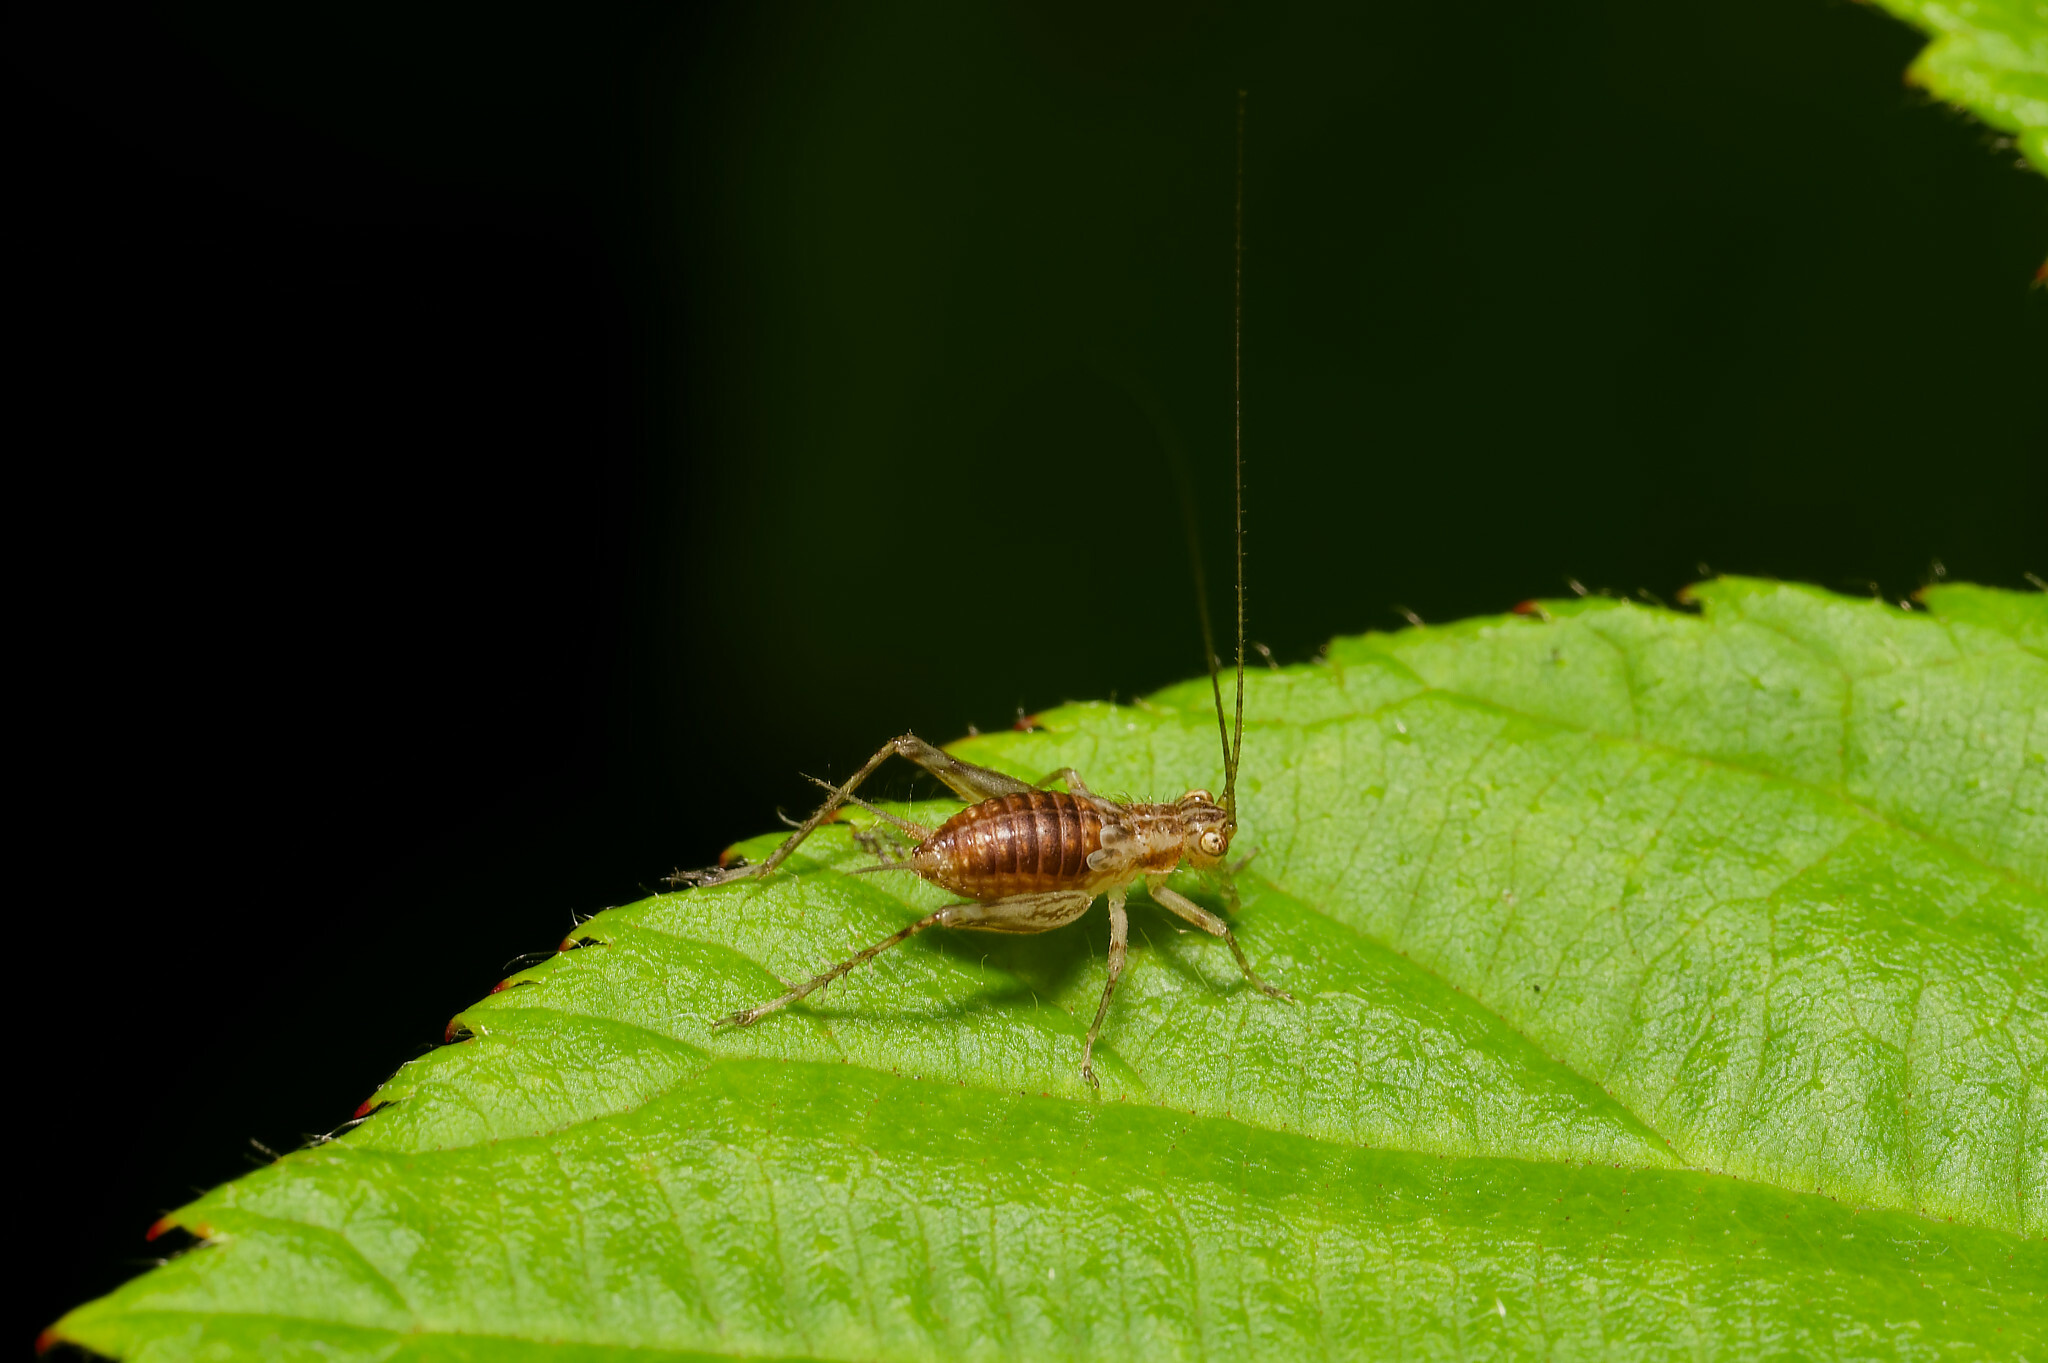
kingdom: Animalia
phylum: Arthropoda
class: Insecta
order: Orthoptera
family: Trigonidiidae
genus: Anaxipha
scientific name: Anaxipha exigua
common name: Say's bush cricket
